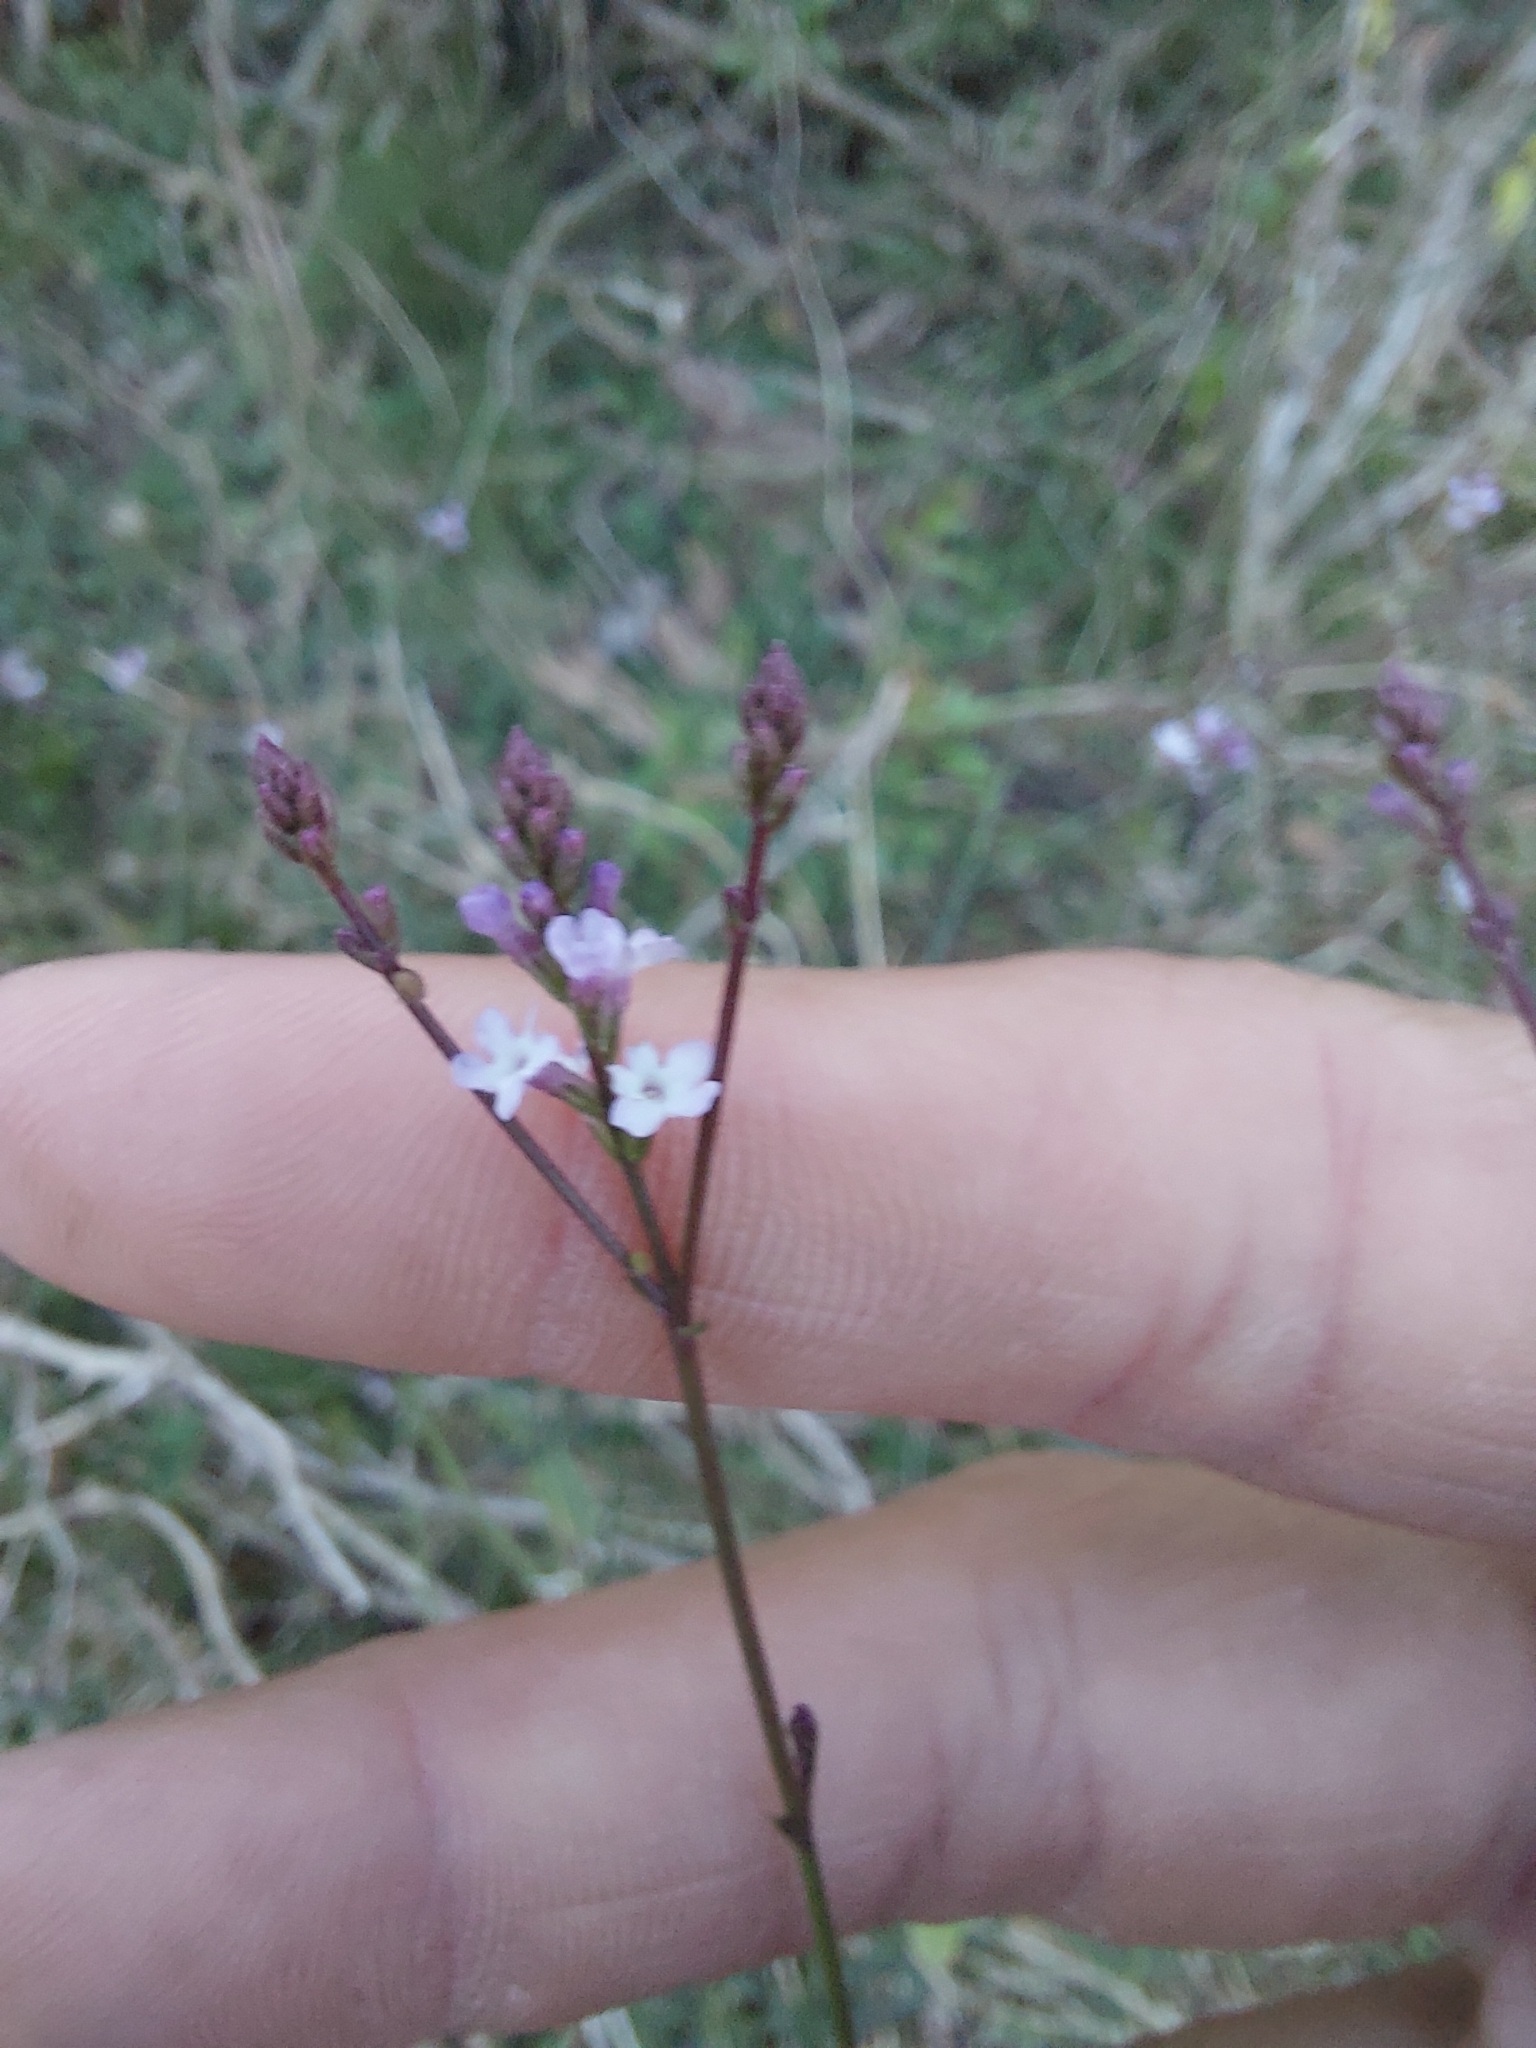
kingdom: Plantae
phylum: Tracheophyta
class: Magnoliopsida
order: Lamiales
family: Verbenaceae
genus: Verbena
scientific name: Verbena gracilescens
